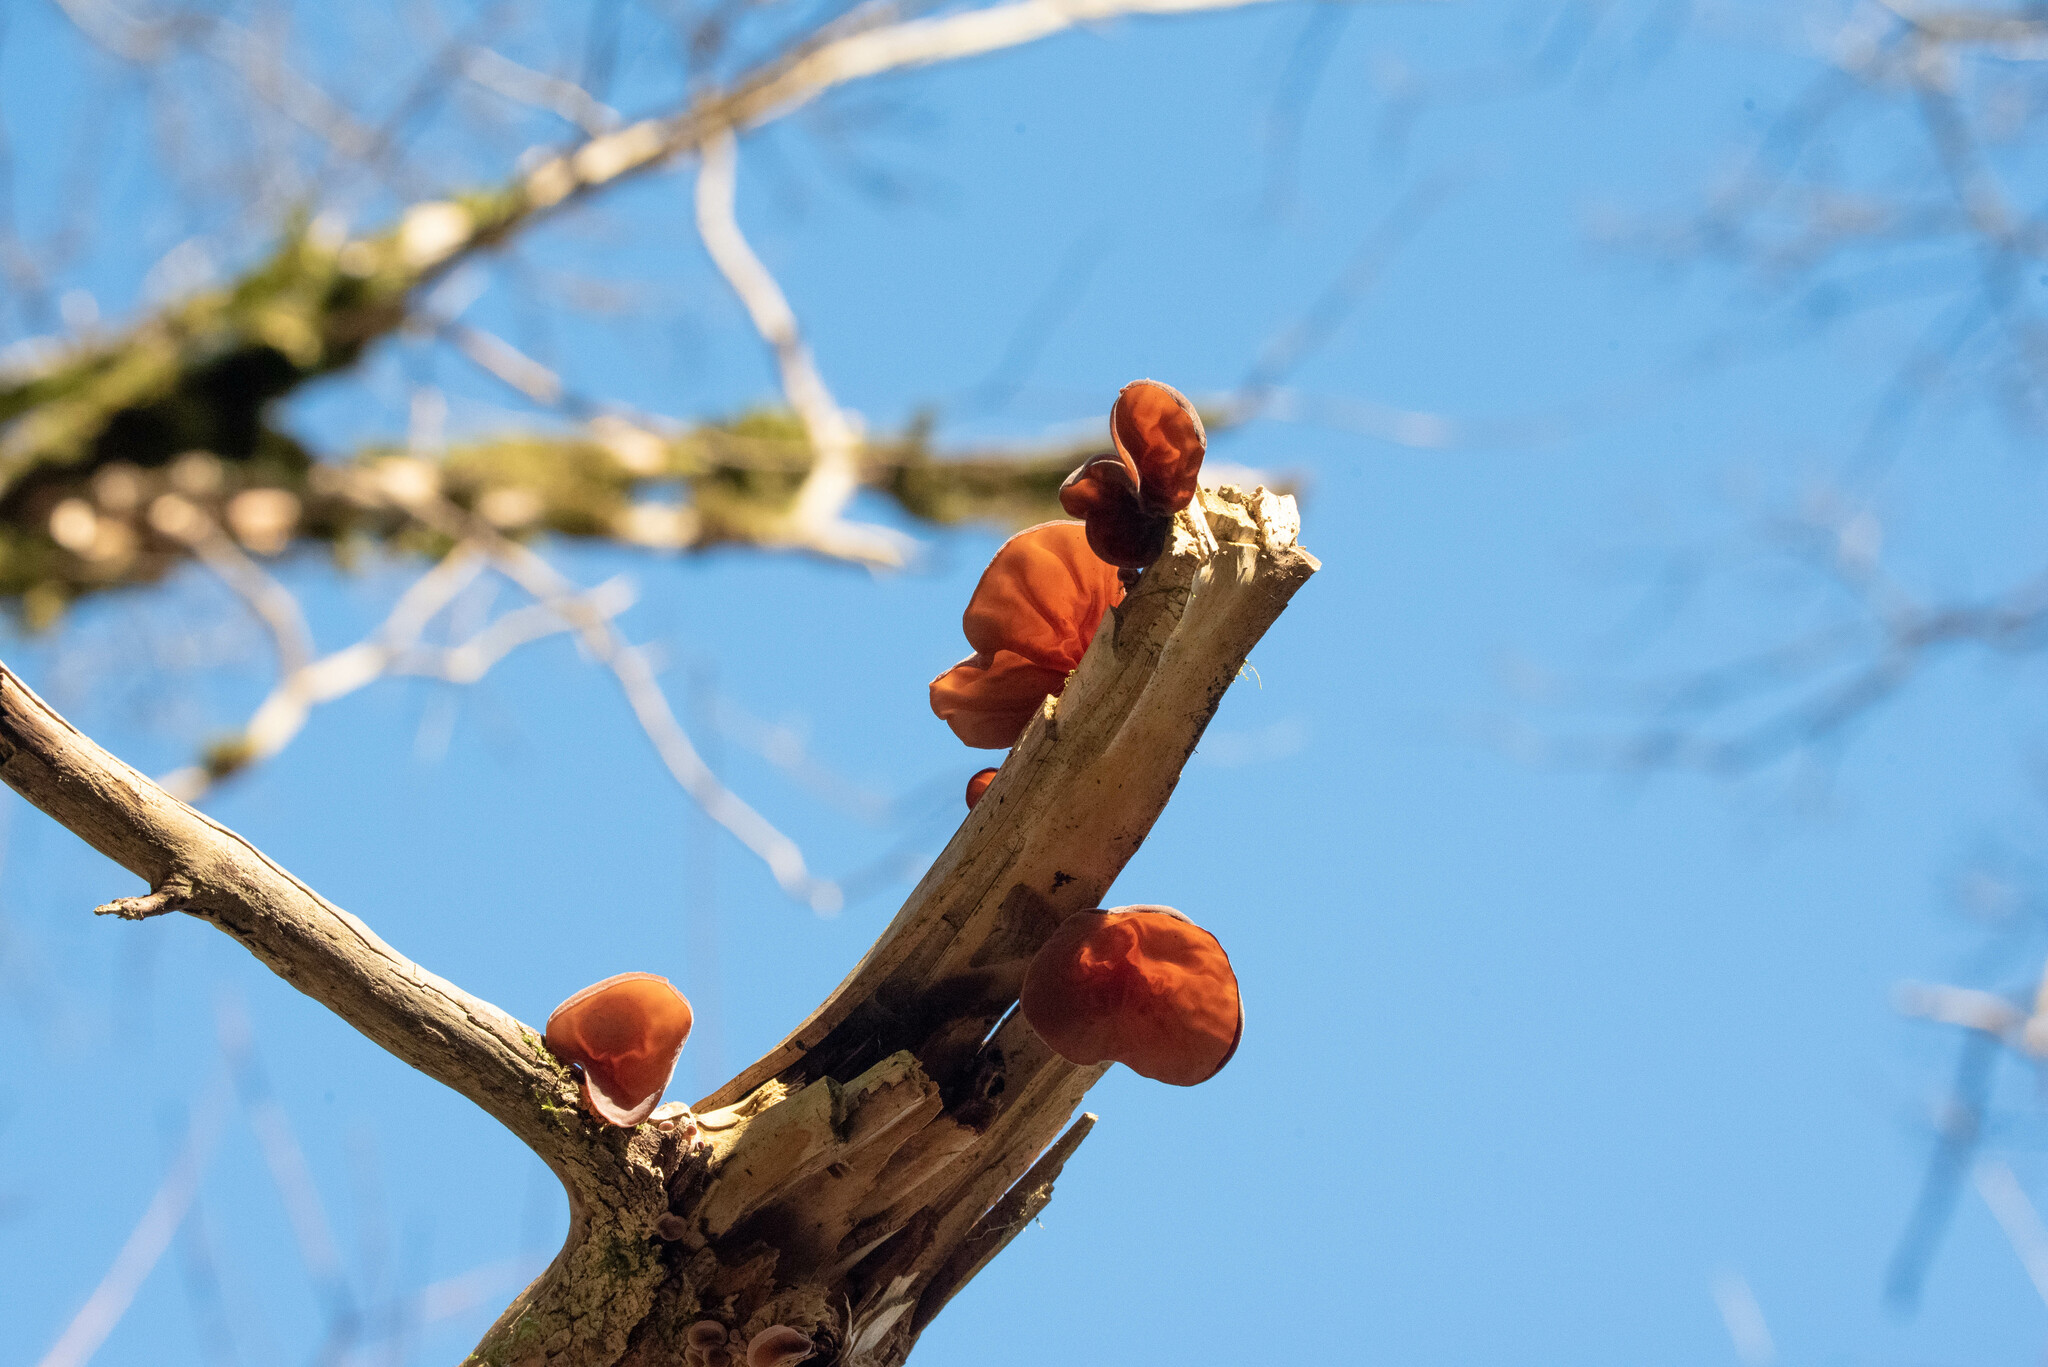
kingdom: Fungi
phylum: Basidiomycota
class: Agaricomycetes
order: Auriculariales
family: Auriculariaceae
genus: Auricularia
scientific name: Auricularia auricula-judae
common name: Jelly ear
